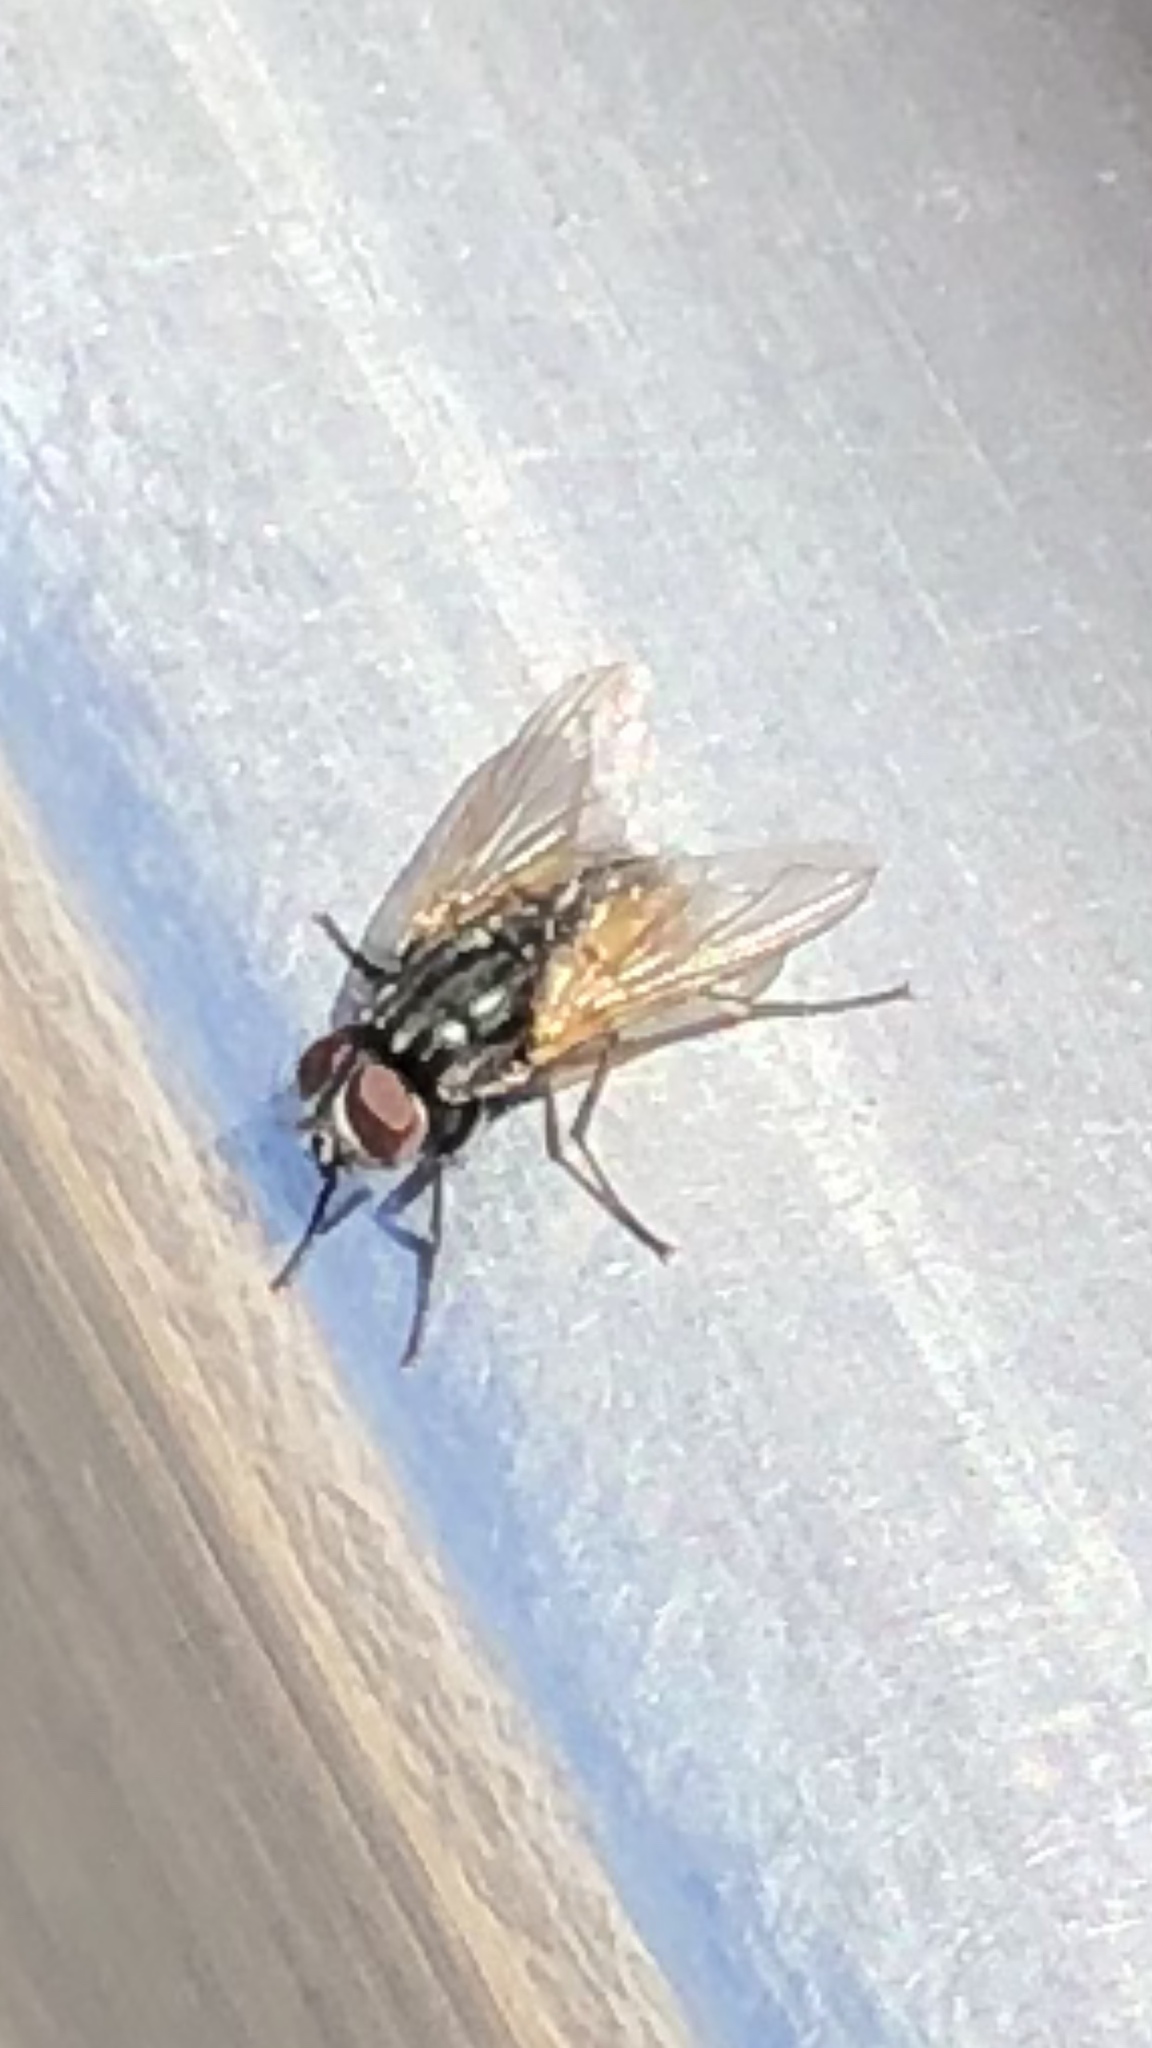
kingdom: Animalia
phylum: Arthropoda
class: Insecta
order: Diptera
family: Muscidae
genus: Musca
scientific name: Musca domestica
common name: House fly
